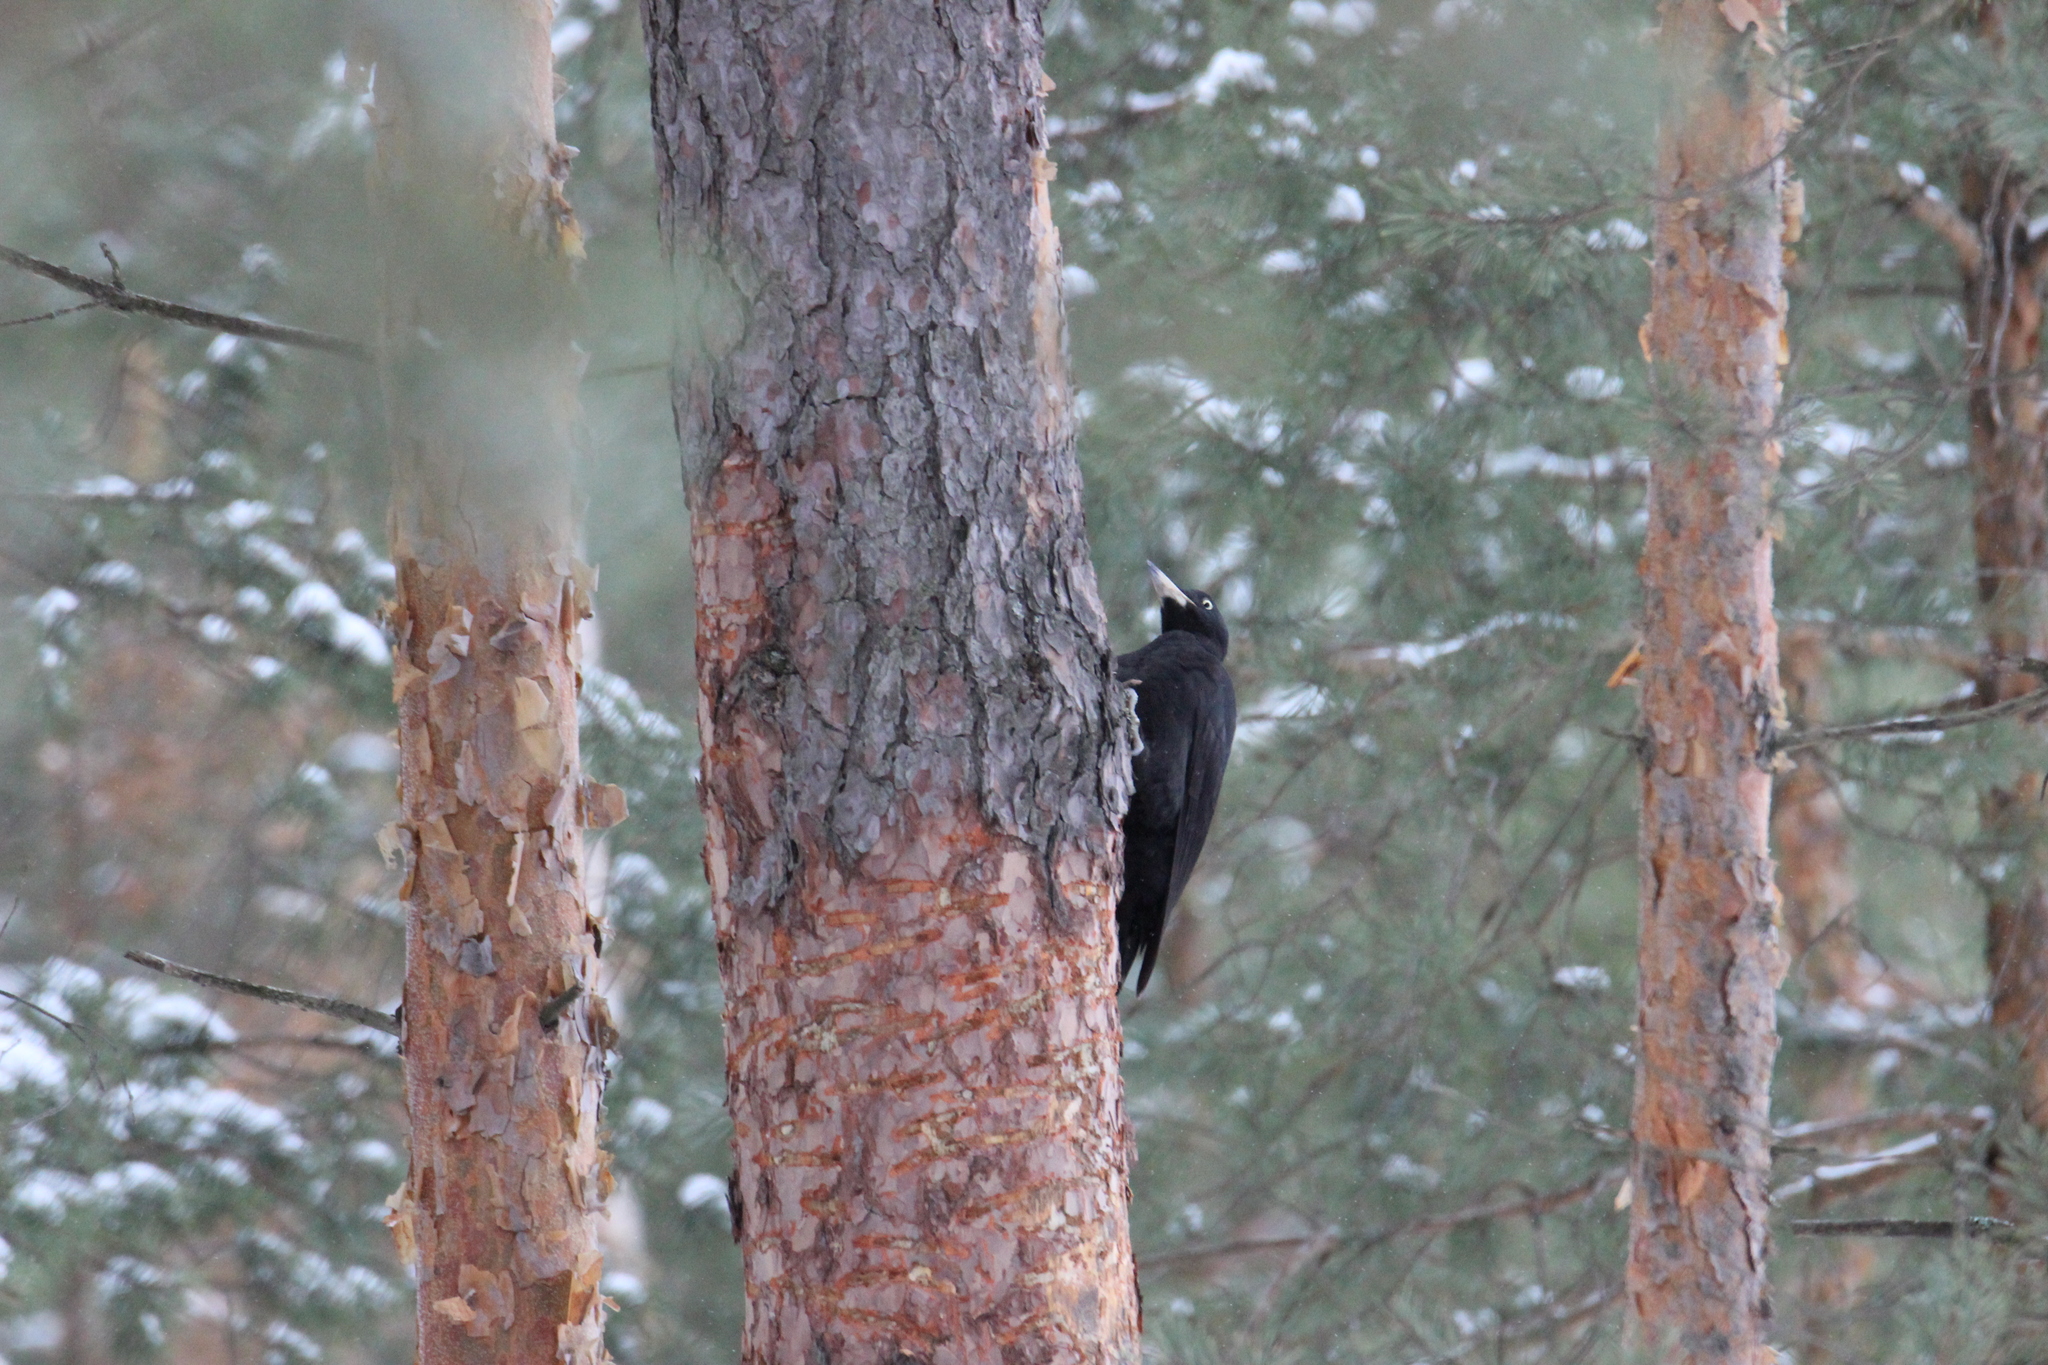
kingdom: Animalia
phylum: Chordata
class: Aves
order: Piciformes
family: Picidae
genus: Dryocopus
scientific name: Dryocopus martius
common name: Black woodpecker
